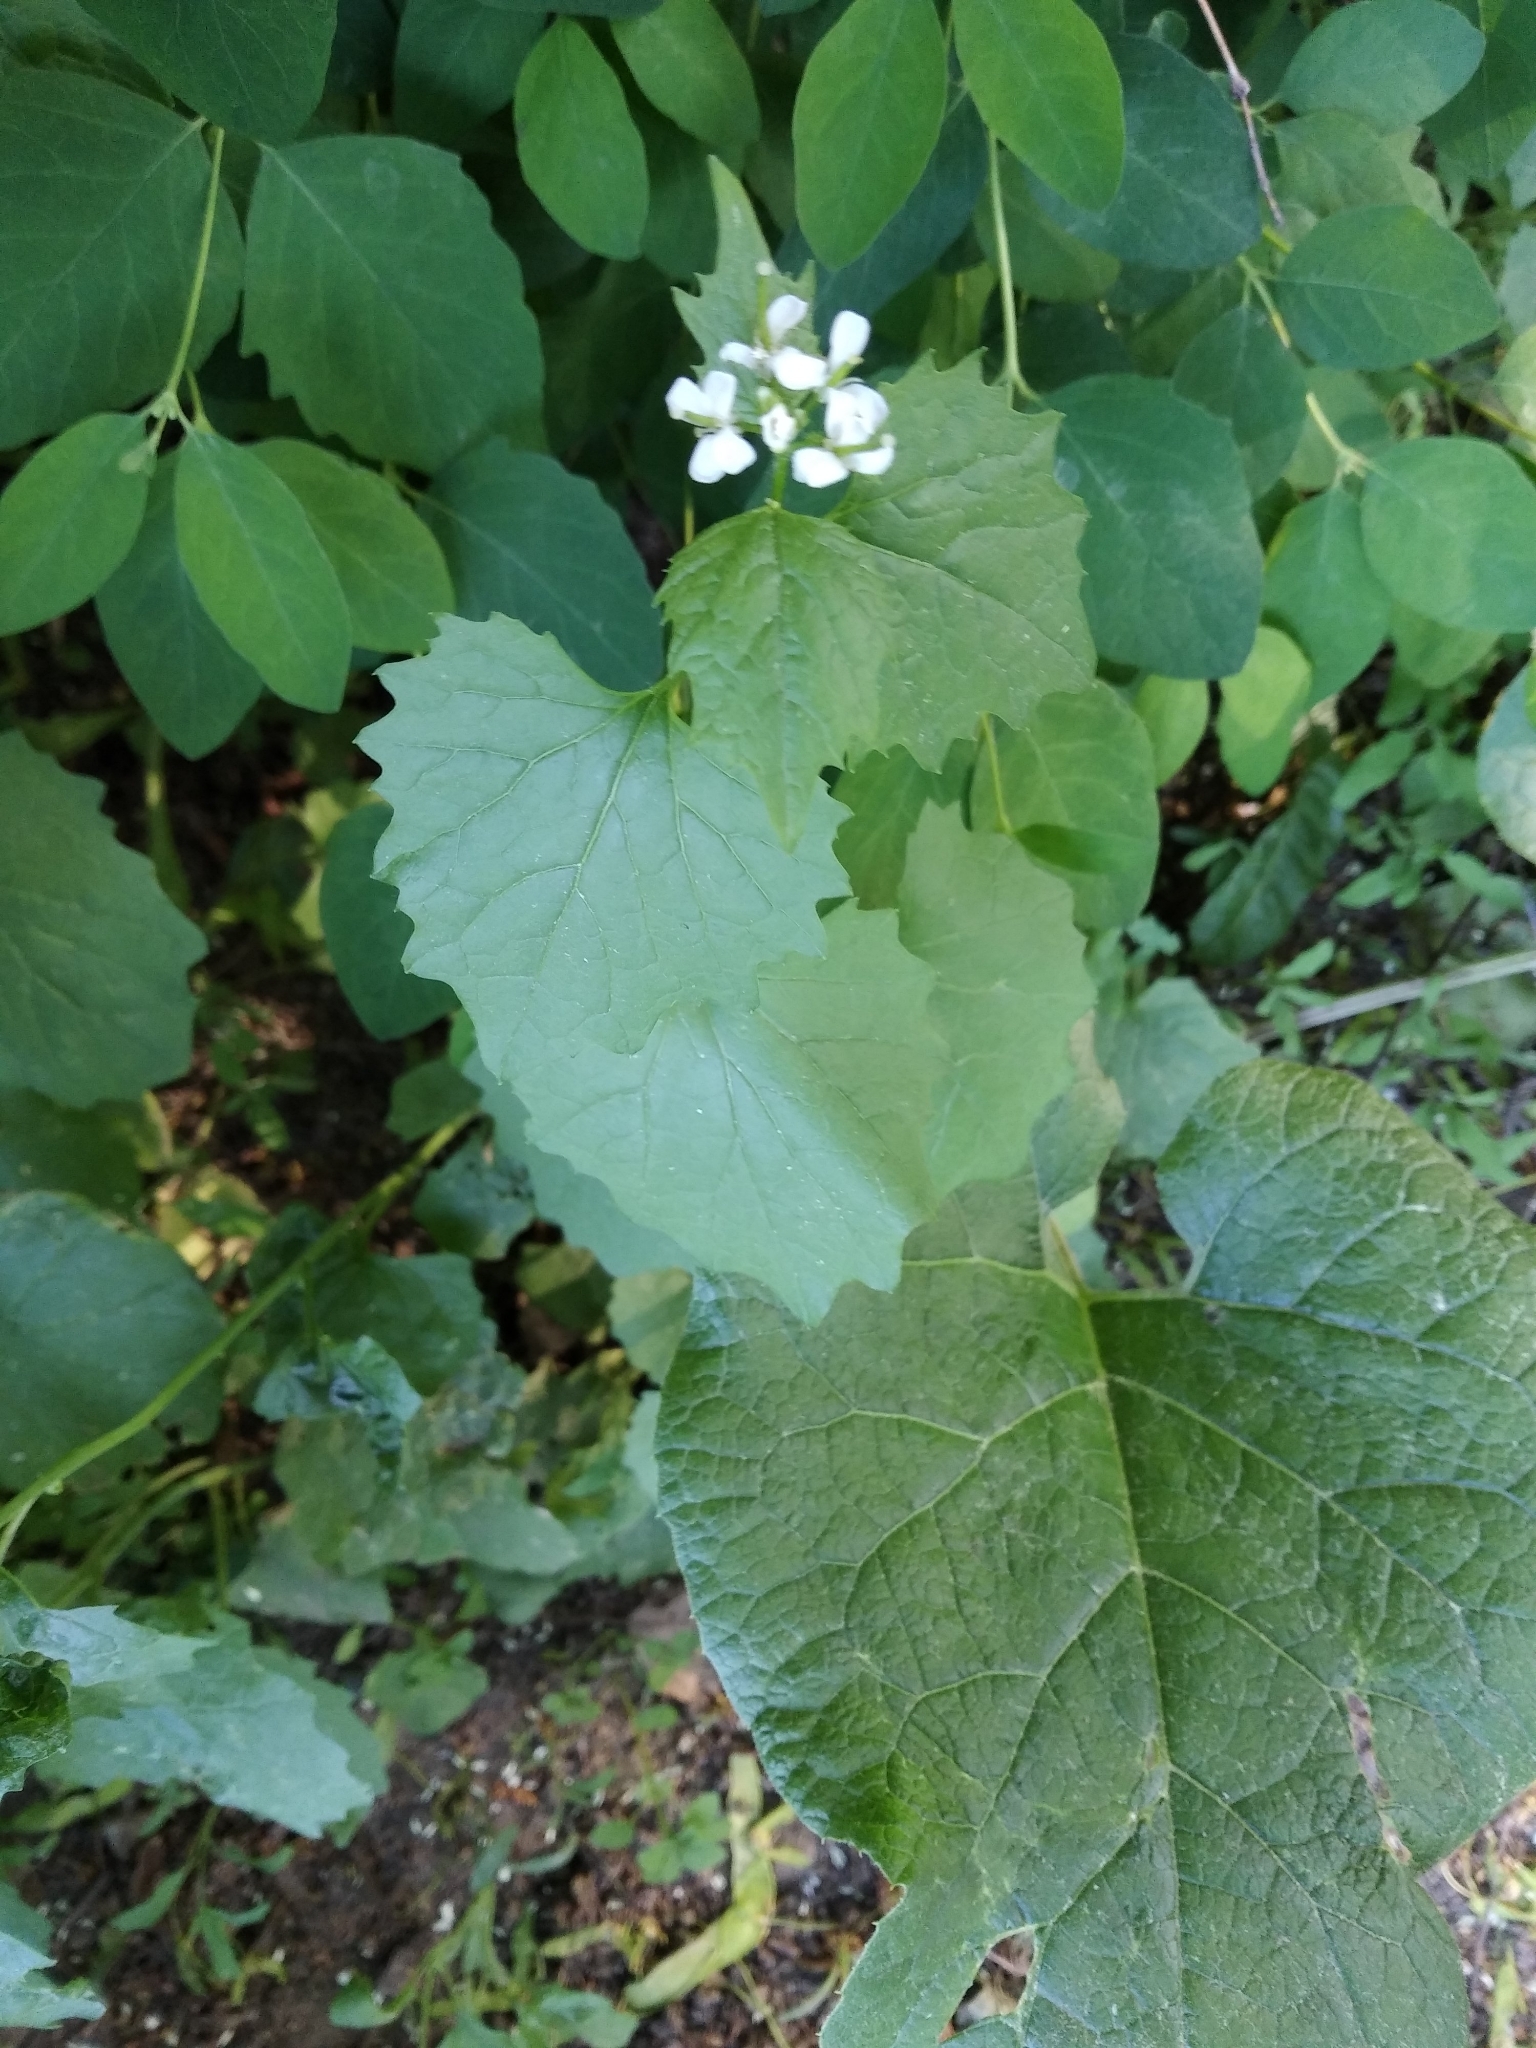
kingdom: Plantae
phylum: Tracheophyta
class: Magnoliopsida
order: Brassicales
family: Brassicaceae
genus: Alliaria
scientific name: Alliaria petiolata
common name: Garlic mustard
